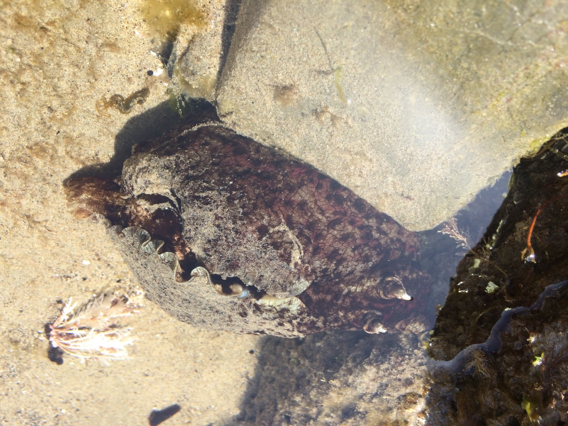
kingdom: Animalia
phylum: Mollusca
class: Gastropoda
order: Aplysiida
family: Aplysiidae
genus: Aplysia
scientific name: Aplysia californica
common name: California seahare
